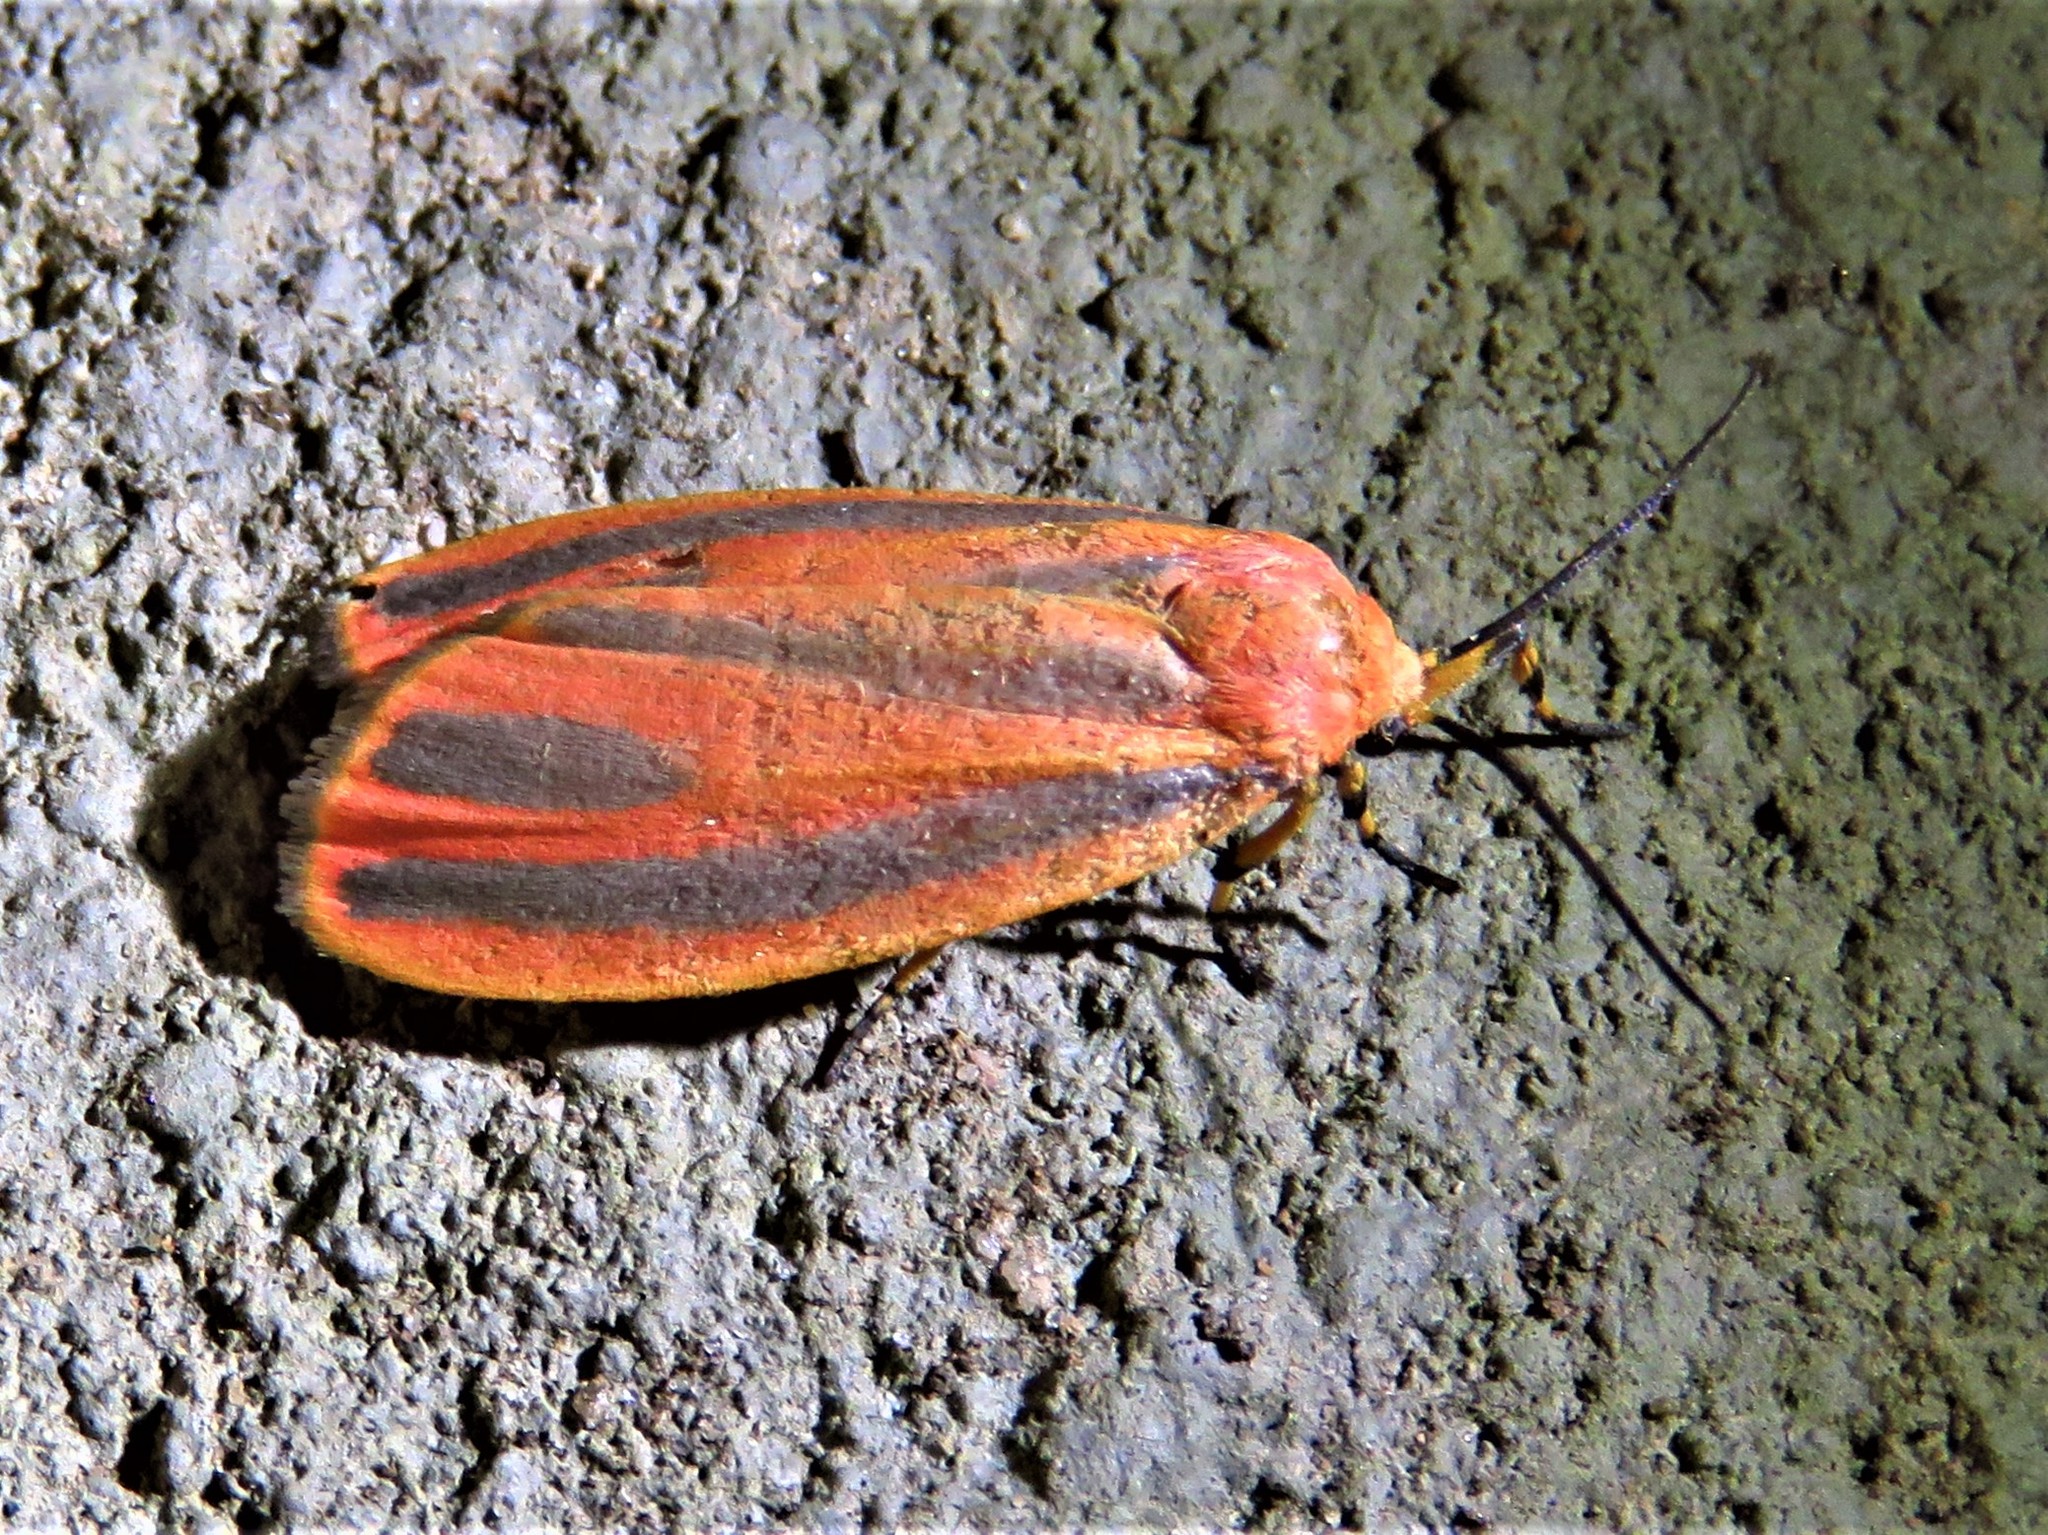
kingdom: Animalia
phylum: Arthropoda
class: Insecta
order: Lepidoptera
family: Erebidae
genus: Hypoprepia
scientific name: Hypoprepia miniata
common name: Scarlet-winged lichen moth
